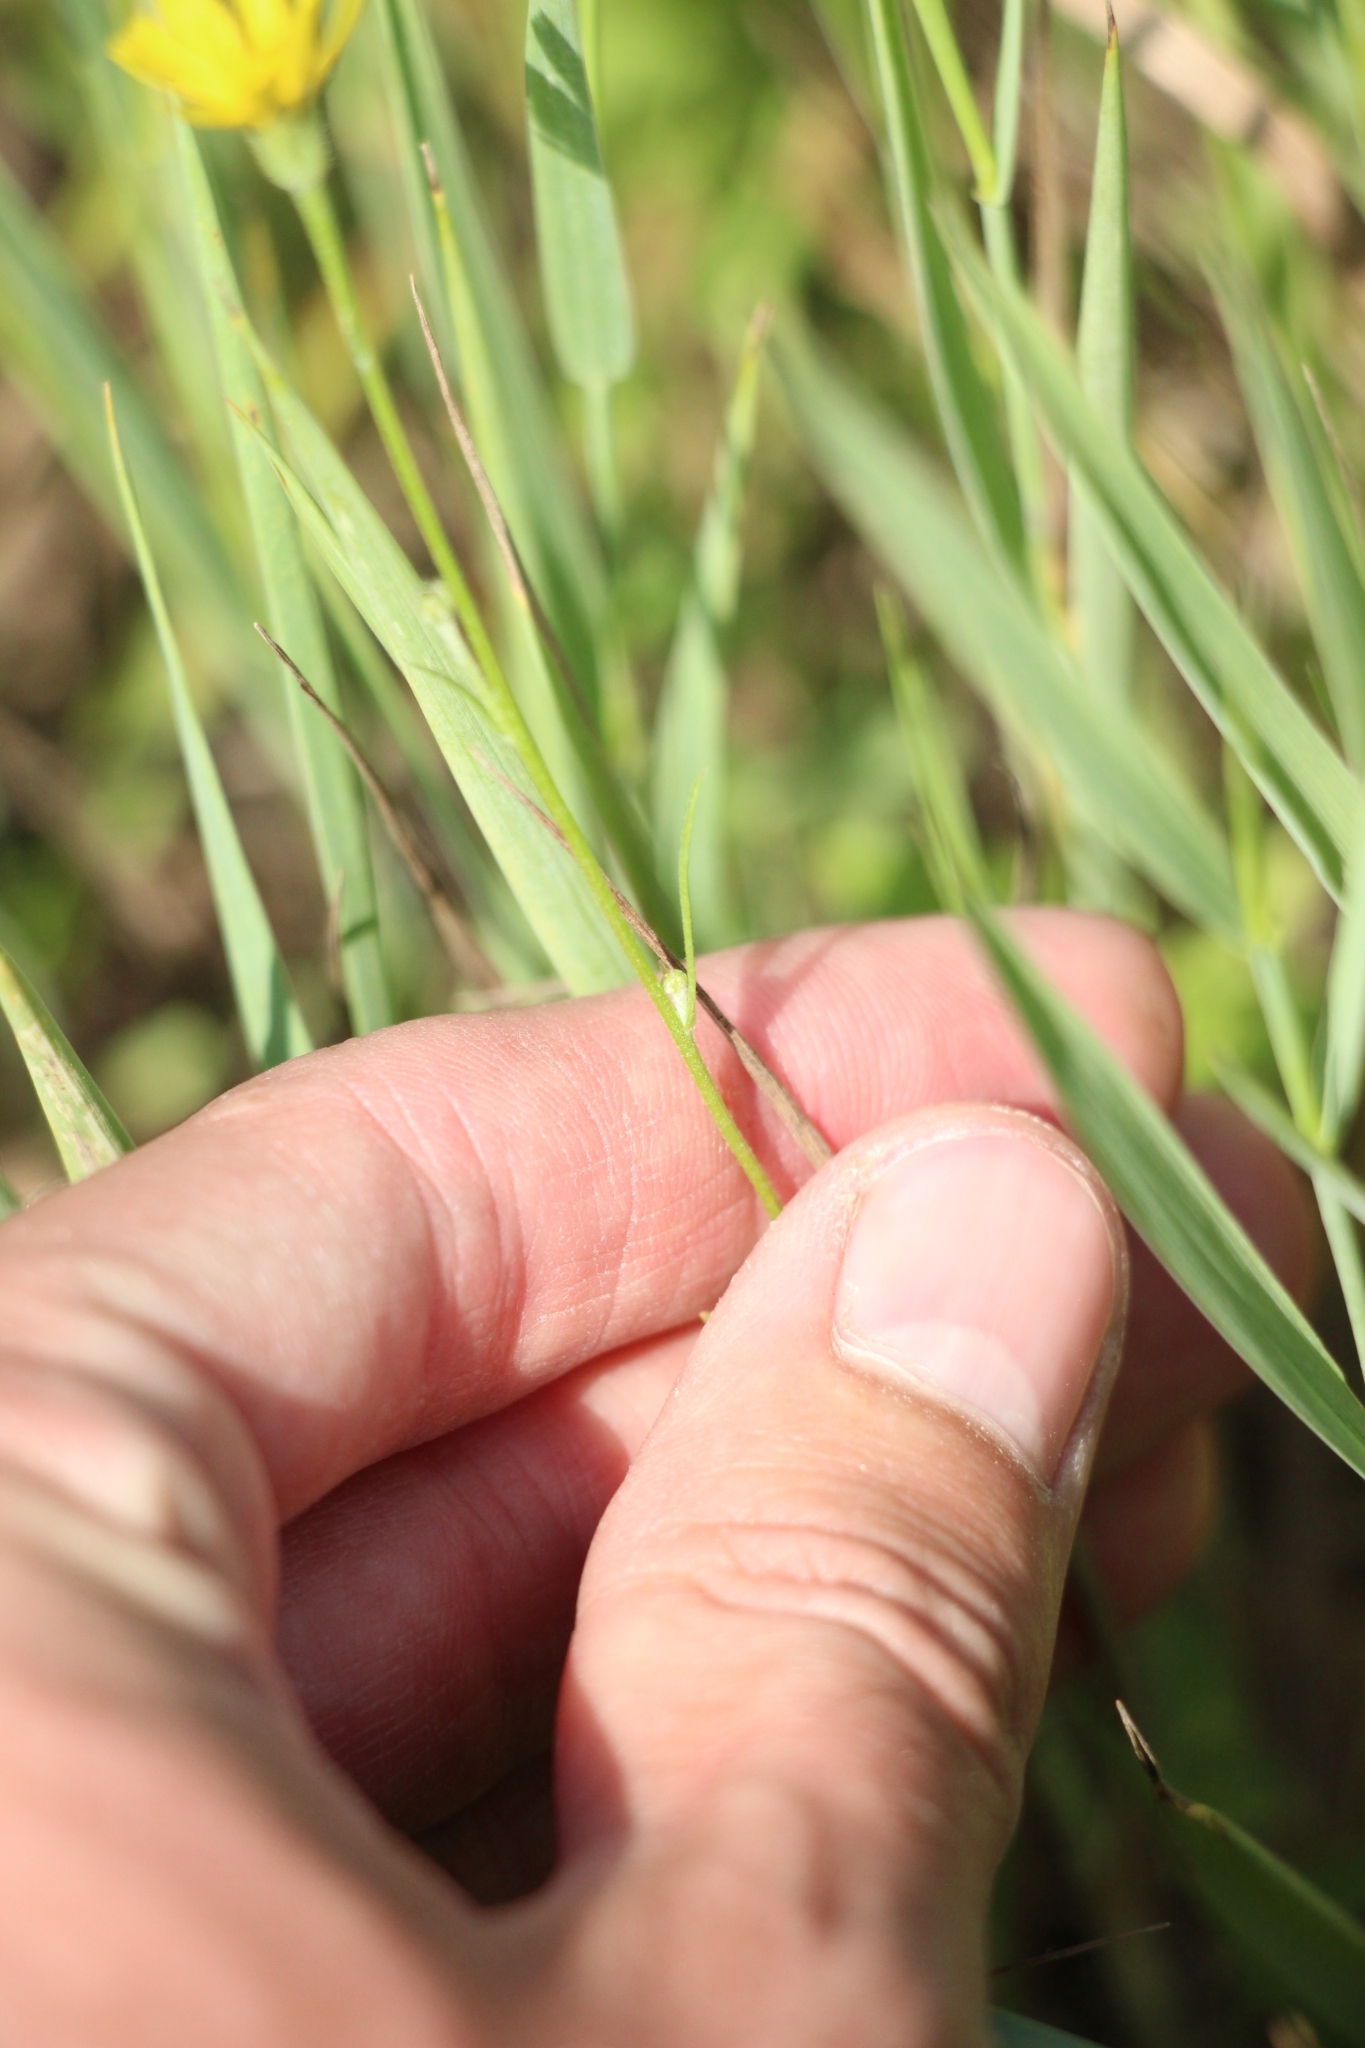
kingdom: Plantae
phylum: Tracheophyta
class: Magnoliopsida
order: Asterales
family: Asteraceae
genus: Chondrilla
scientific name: Chondrilla juncea
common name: Skeleton weed
